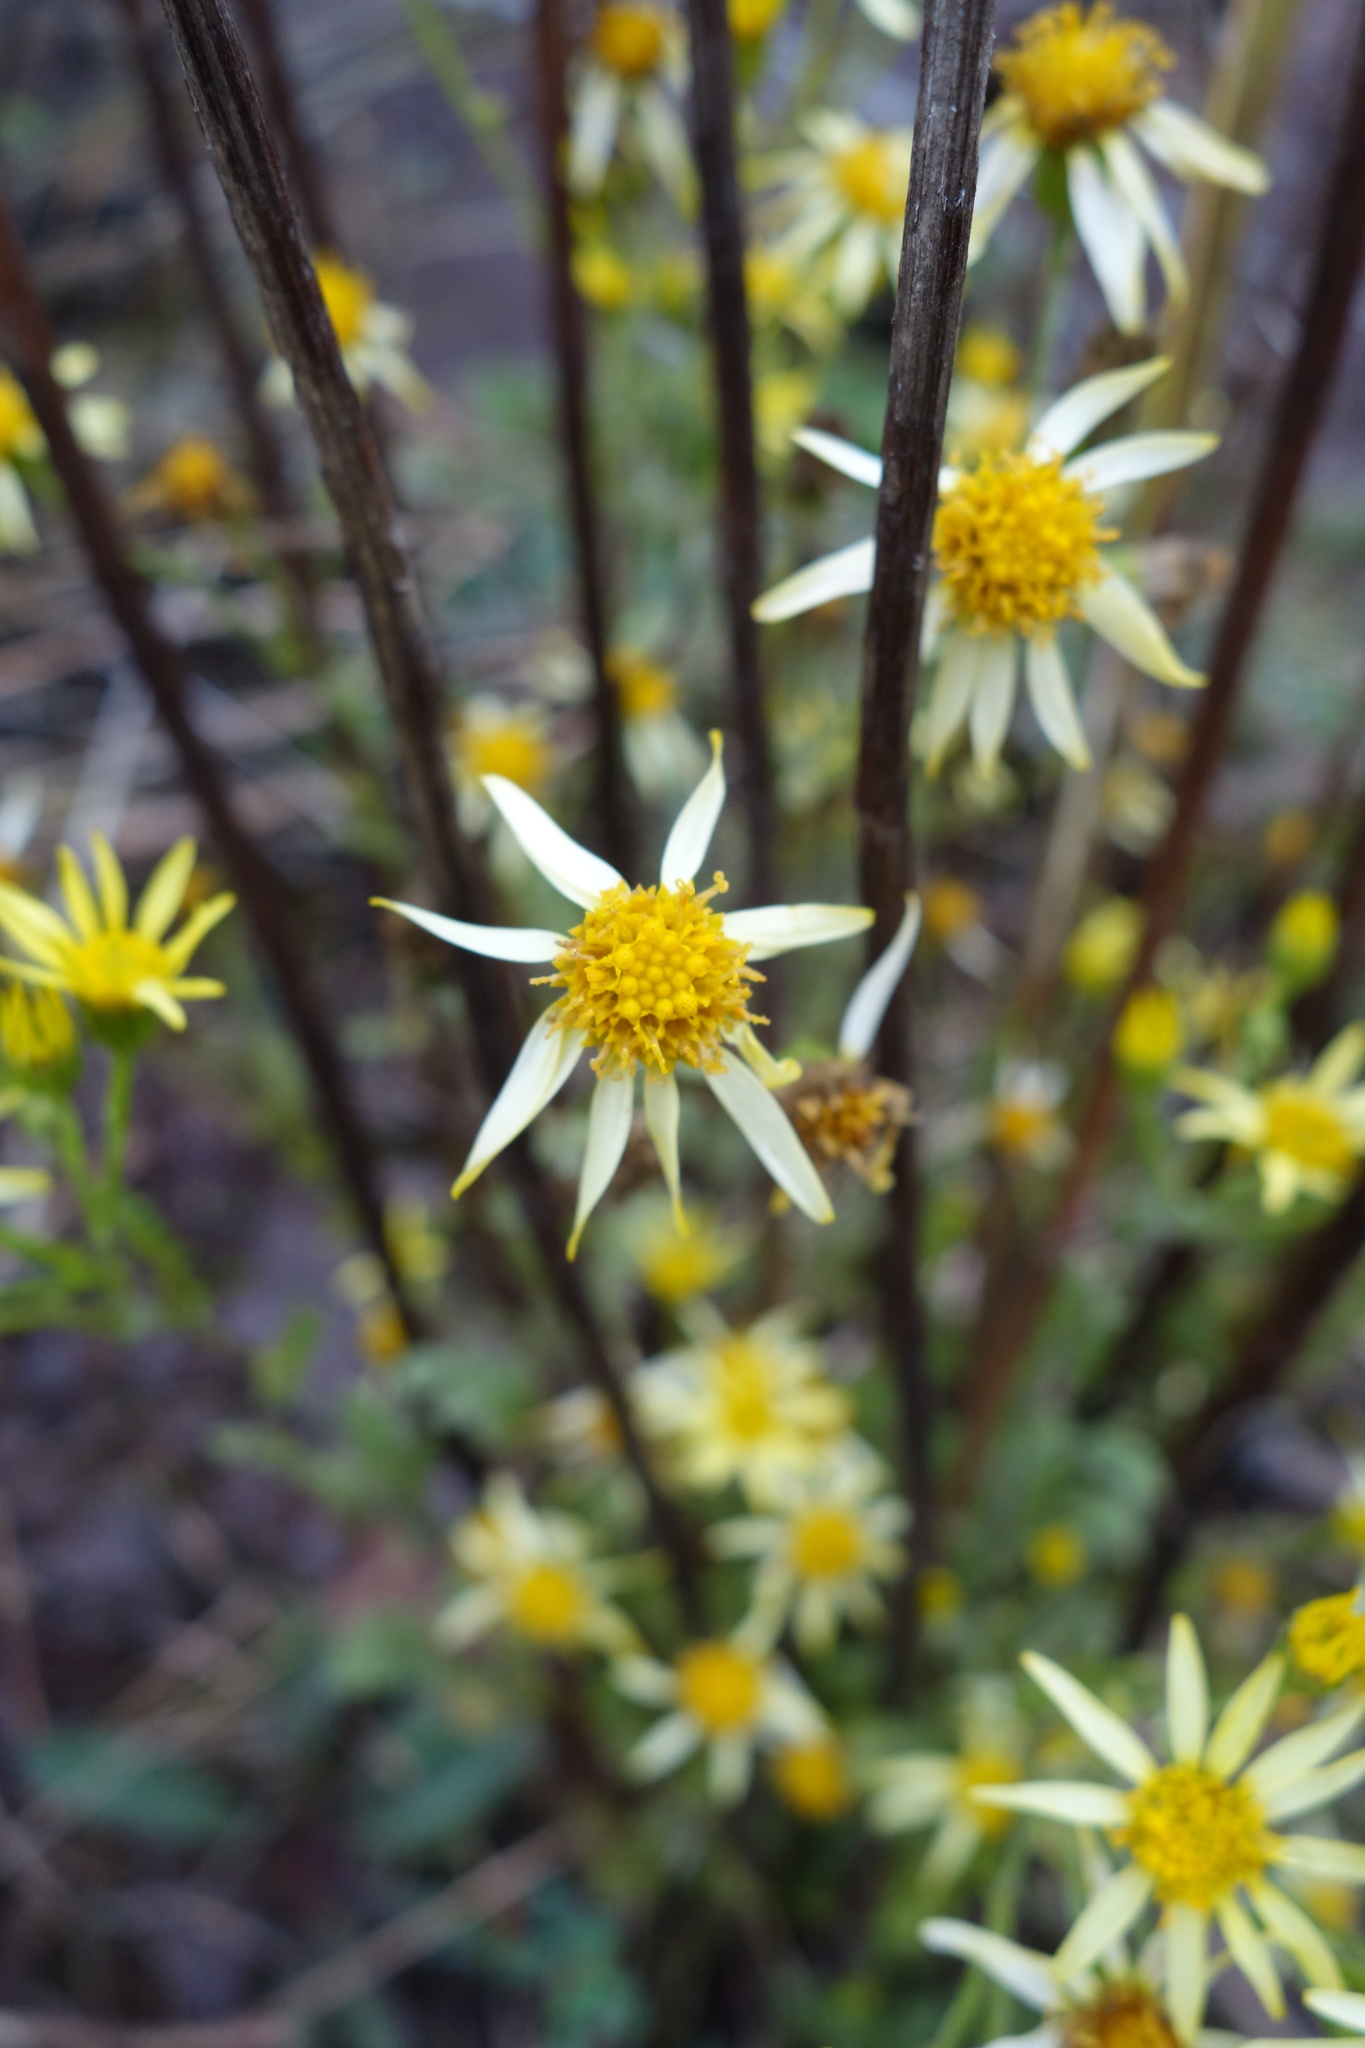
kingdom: Plantae
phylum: Tracheophyta
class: Magnoliopsida
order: Asterales
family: Asteraceae
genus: Jacobaea
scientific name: Jacobaea vulgaris
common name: Stinking willie
